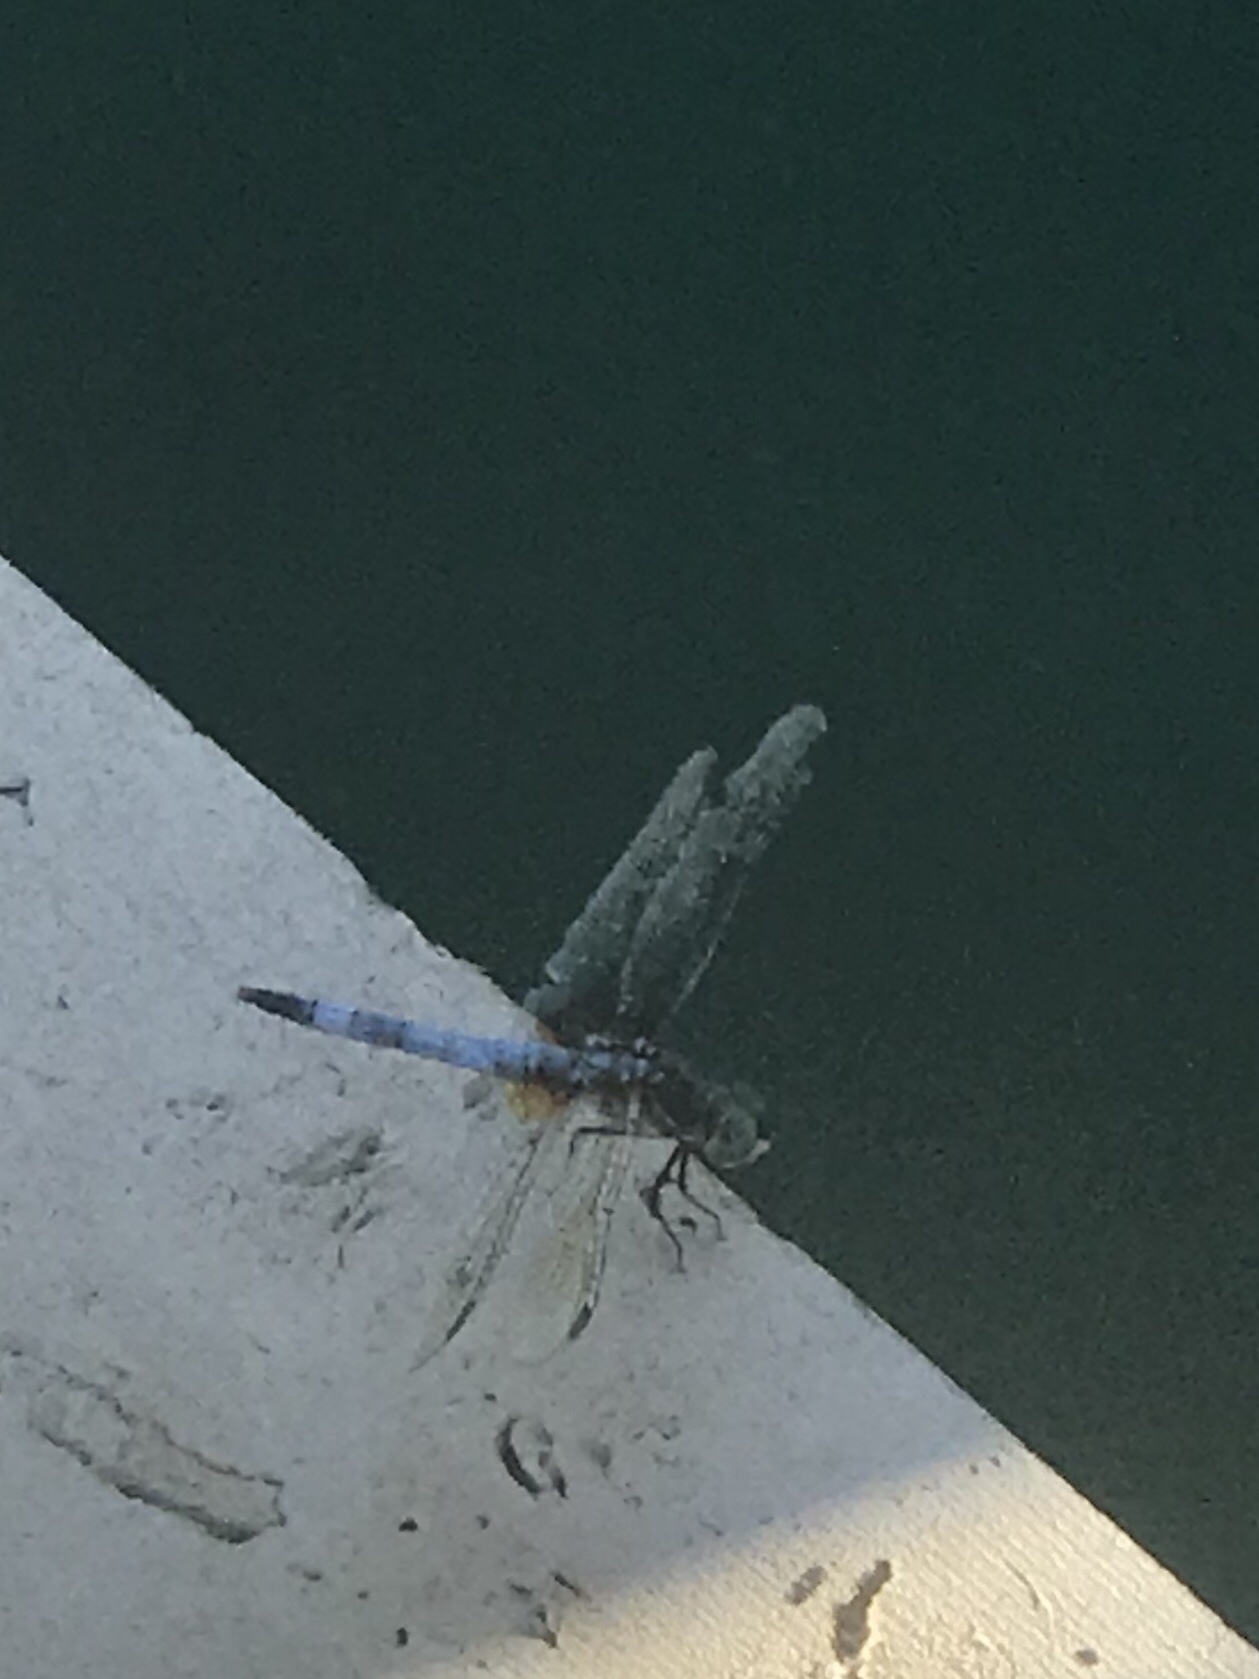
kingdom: Animalia
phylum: Arthropoda
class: Insecta
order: Odonata
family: Libellulidae
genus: Pachydiplax
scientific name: Pachydiplax longipennis
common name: Blue dasher
